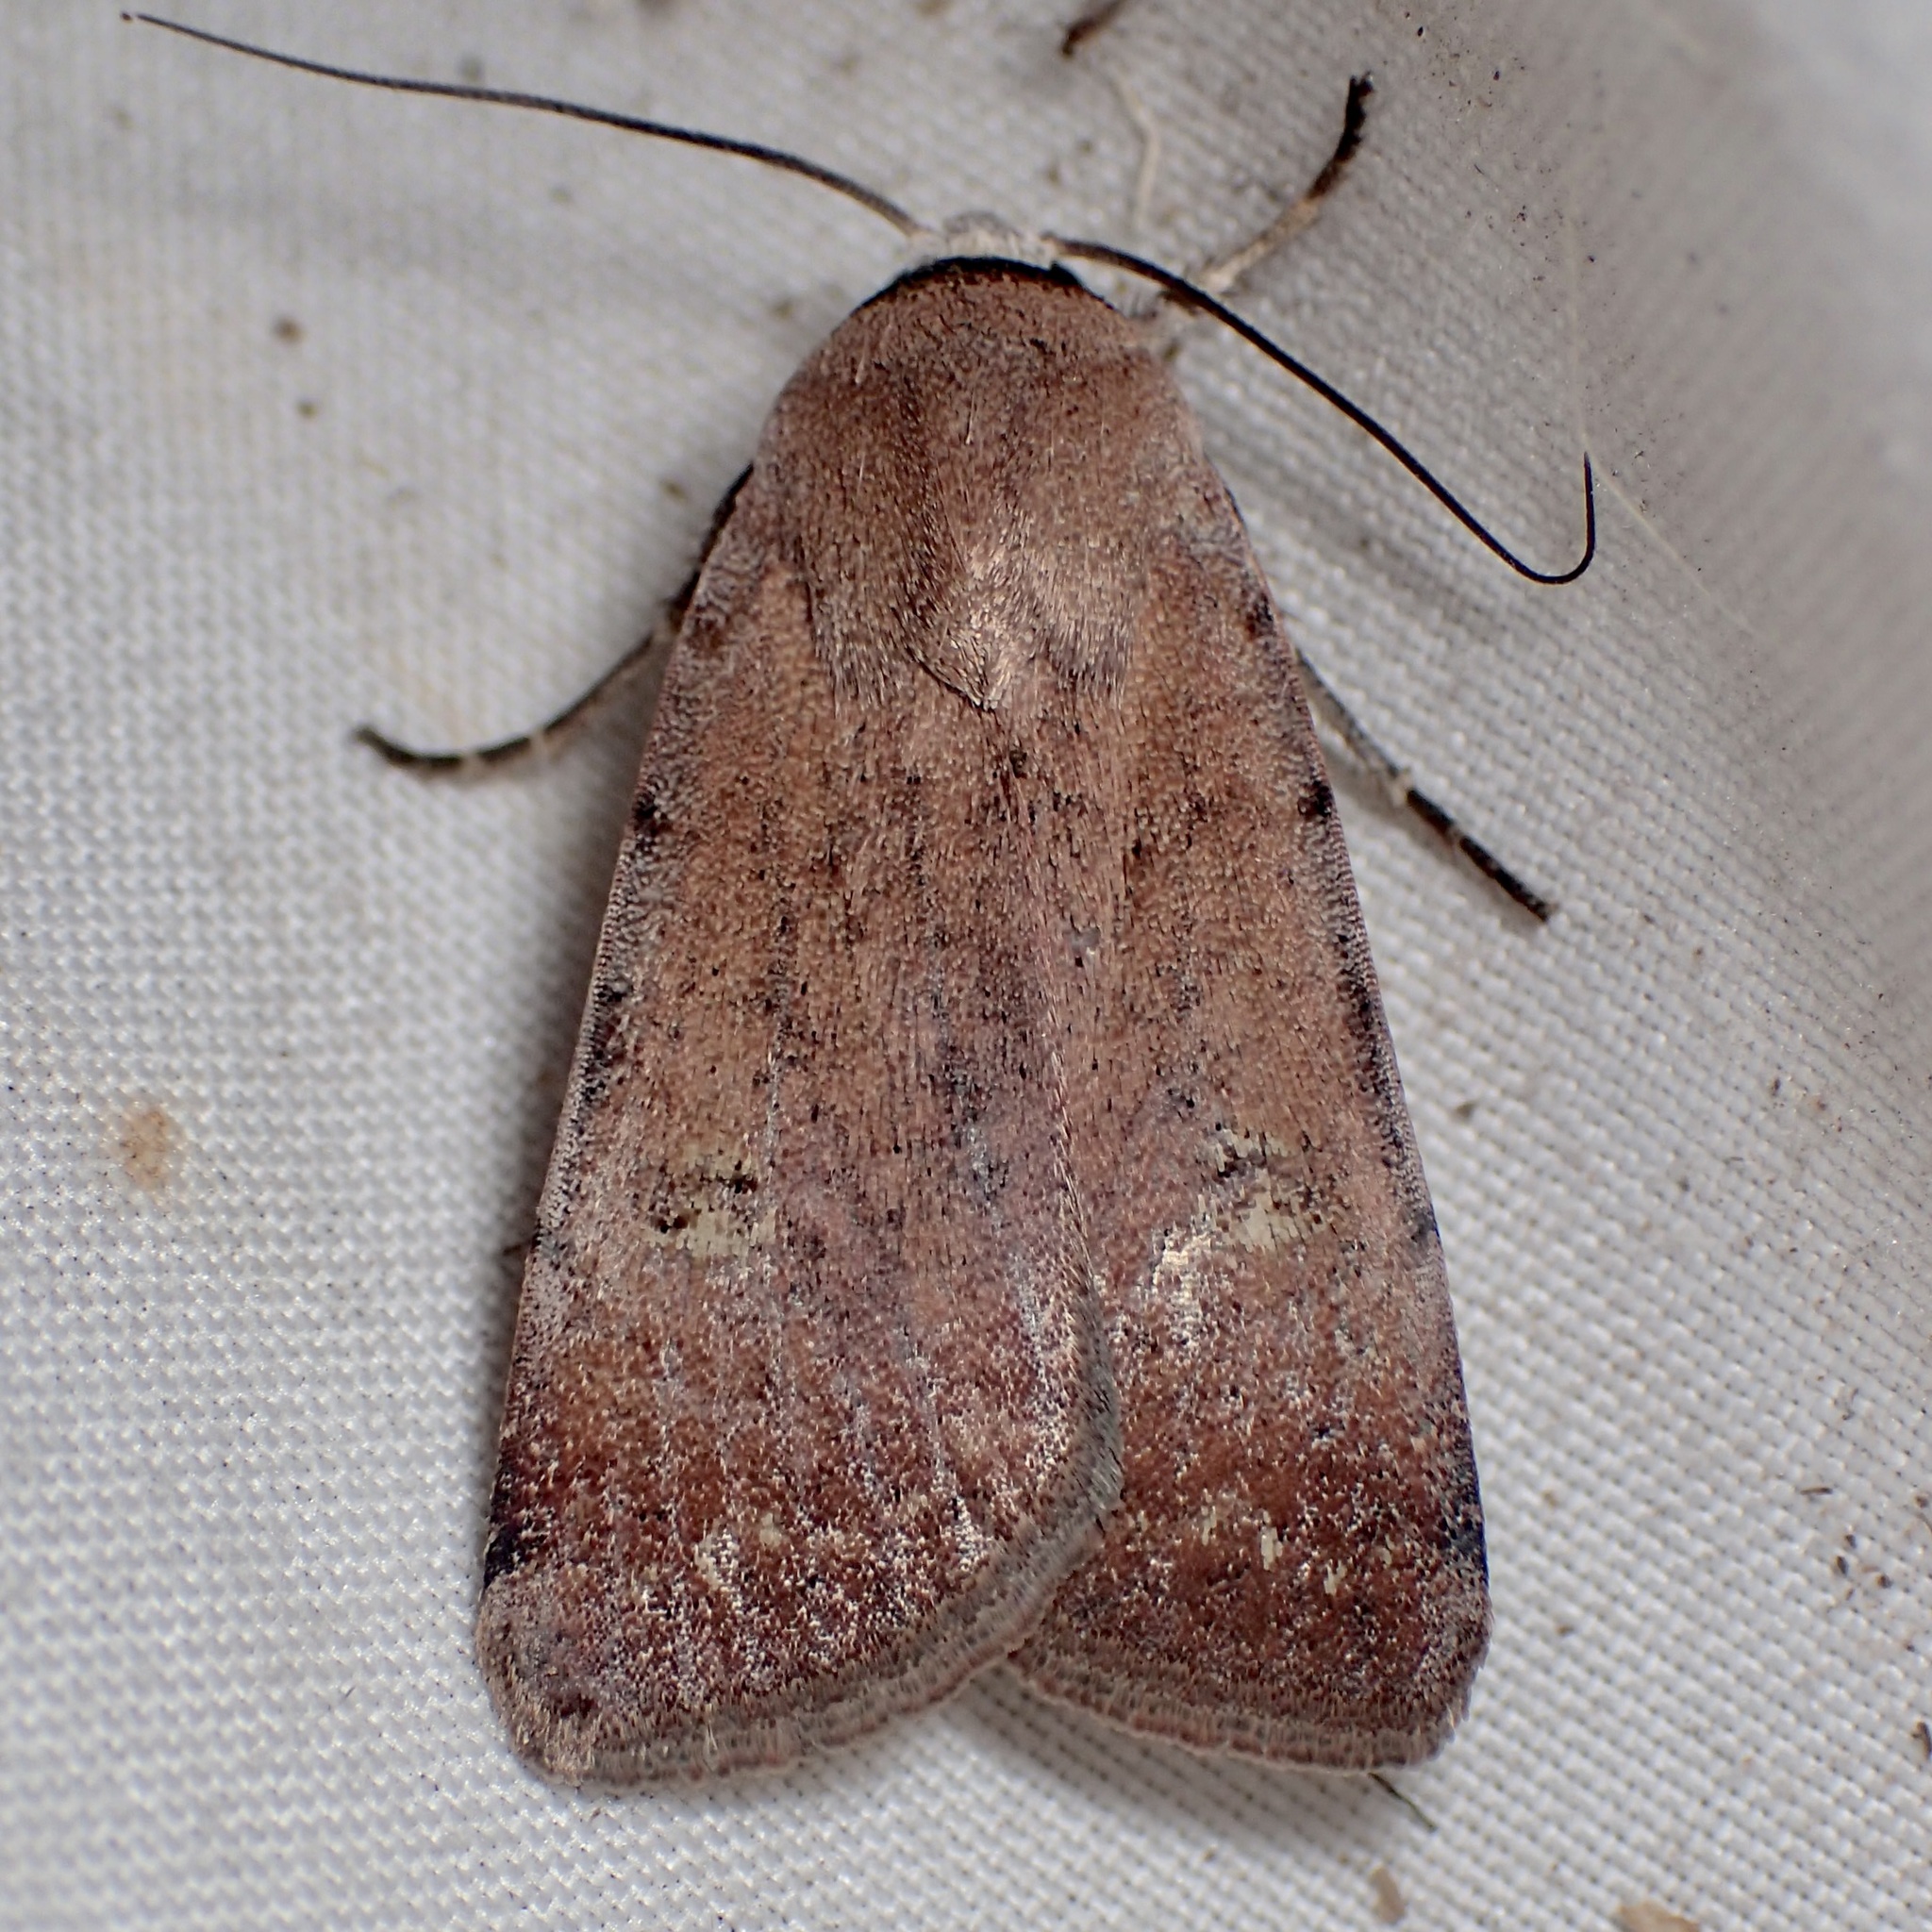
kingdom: Animalia
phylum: Arthropoda
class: Insecta
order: Lepidoptera
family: Noctuidae
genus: Anicla
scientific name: Anicla biformata
